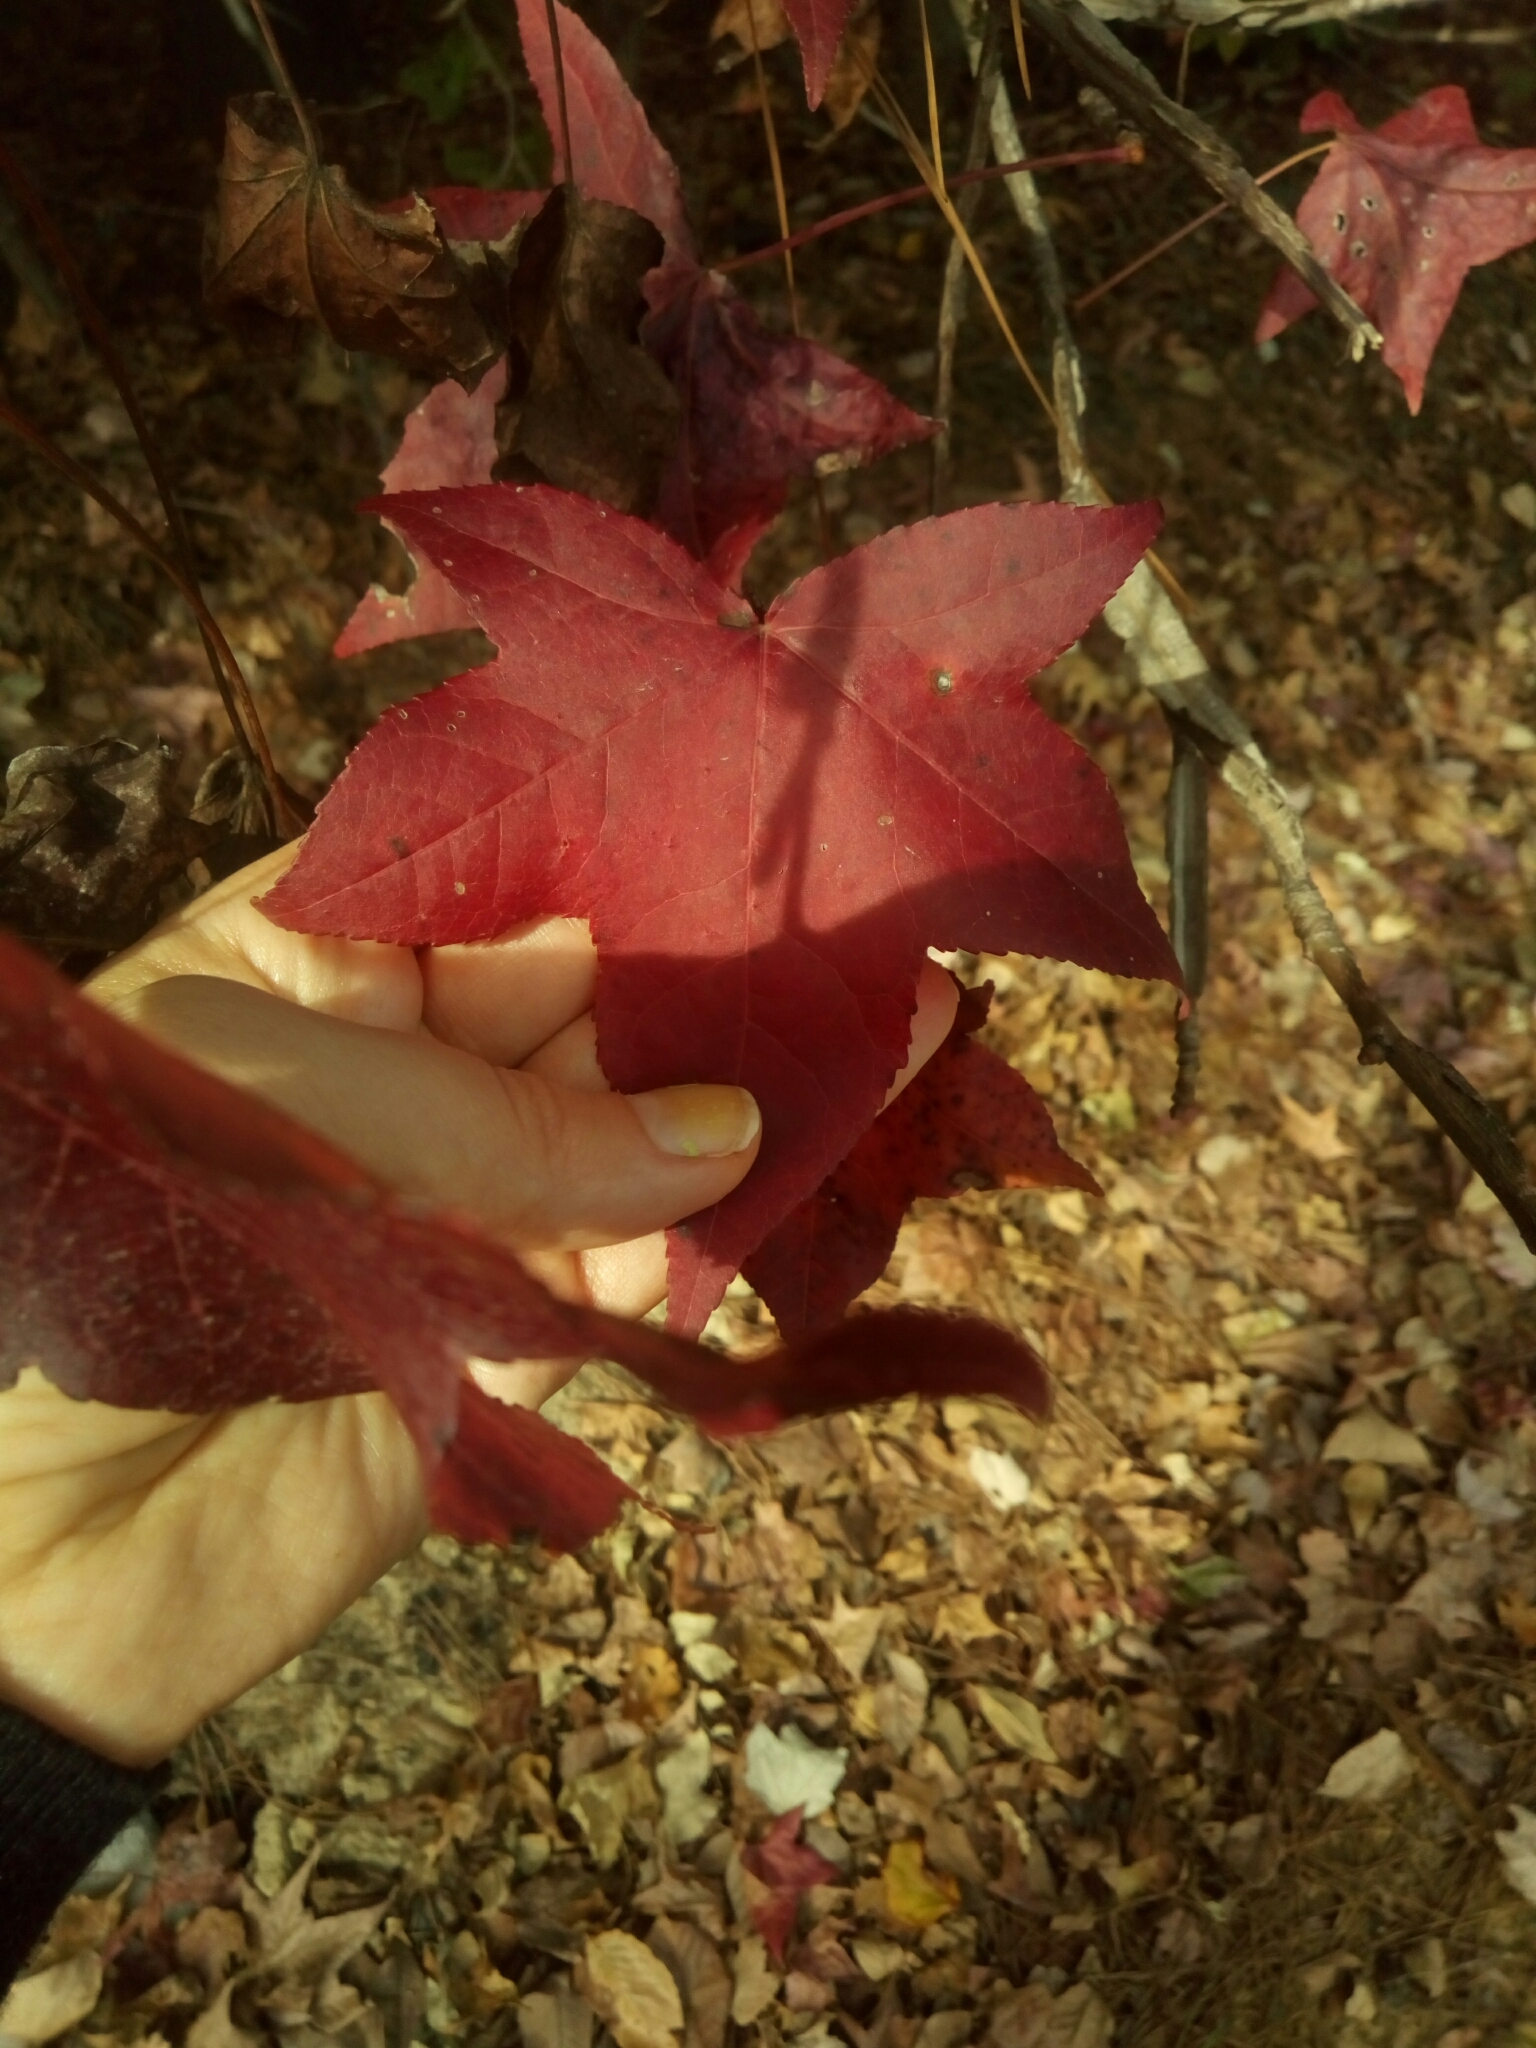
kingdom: Plantae
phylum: Tracheophyta
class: Magnoliopsida
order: Saxifragales
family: Altingiaceae
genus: Liquidambar
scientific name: Liquidambar styraciflua
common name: Sweet gum
